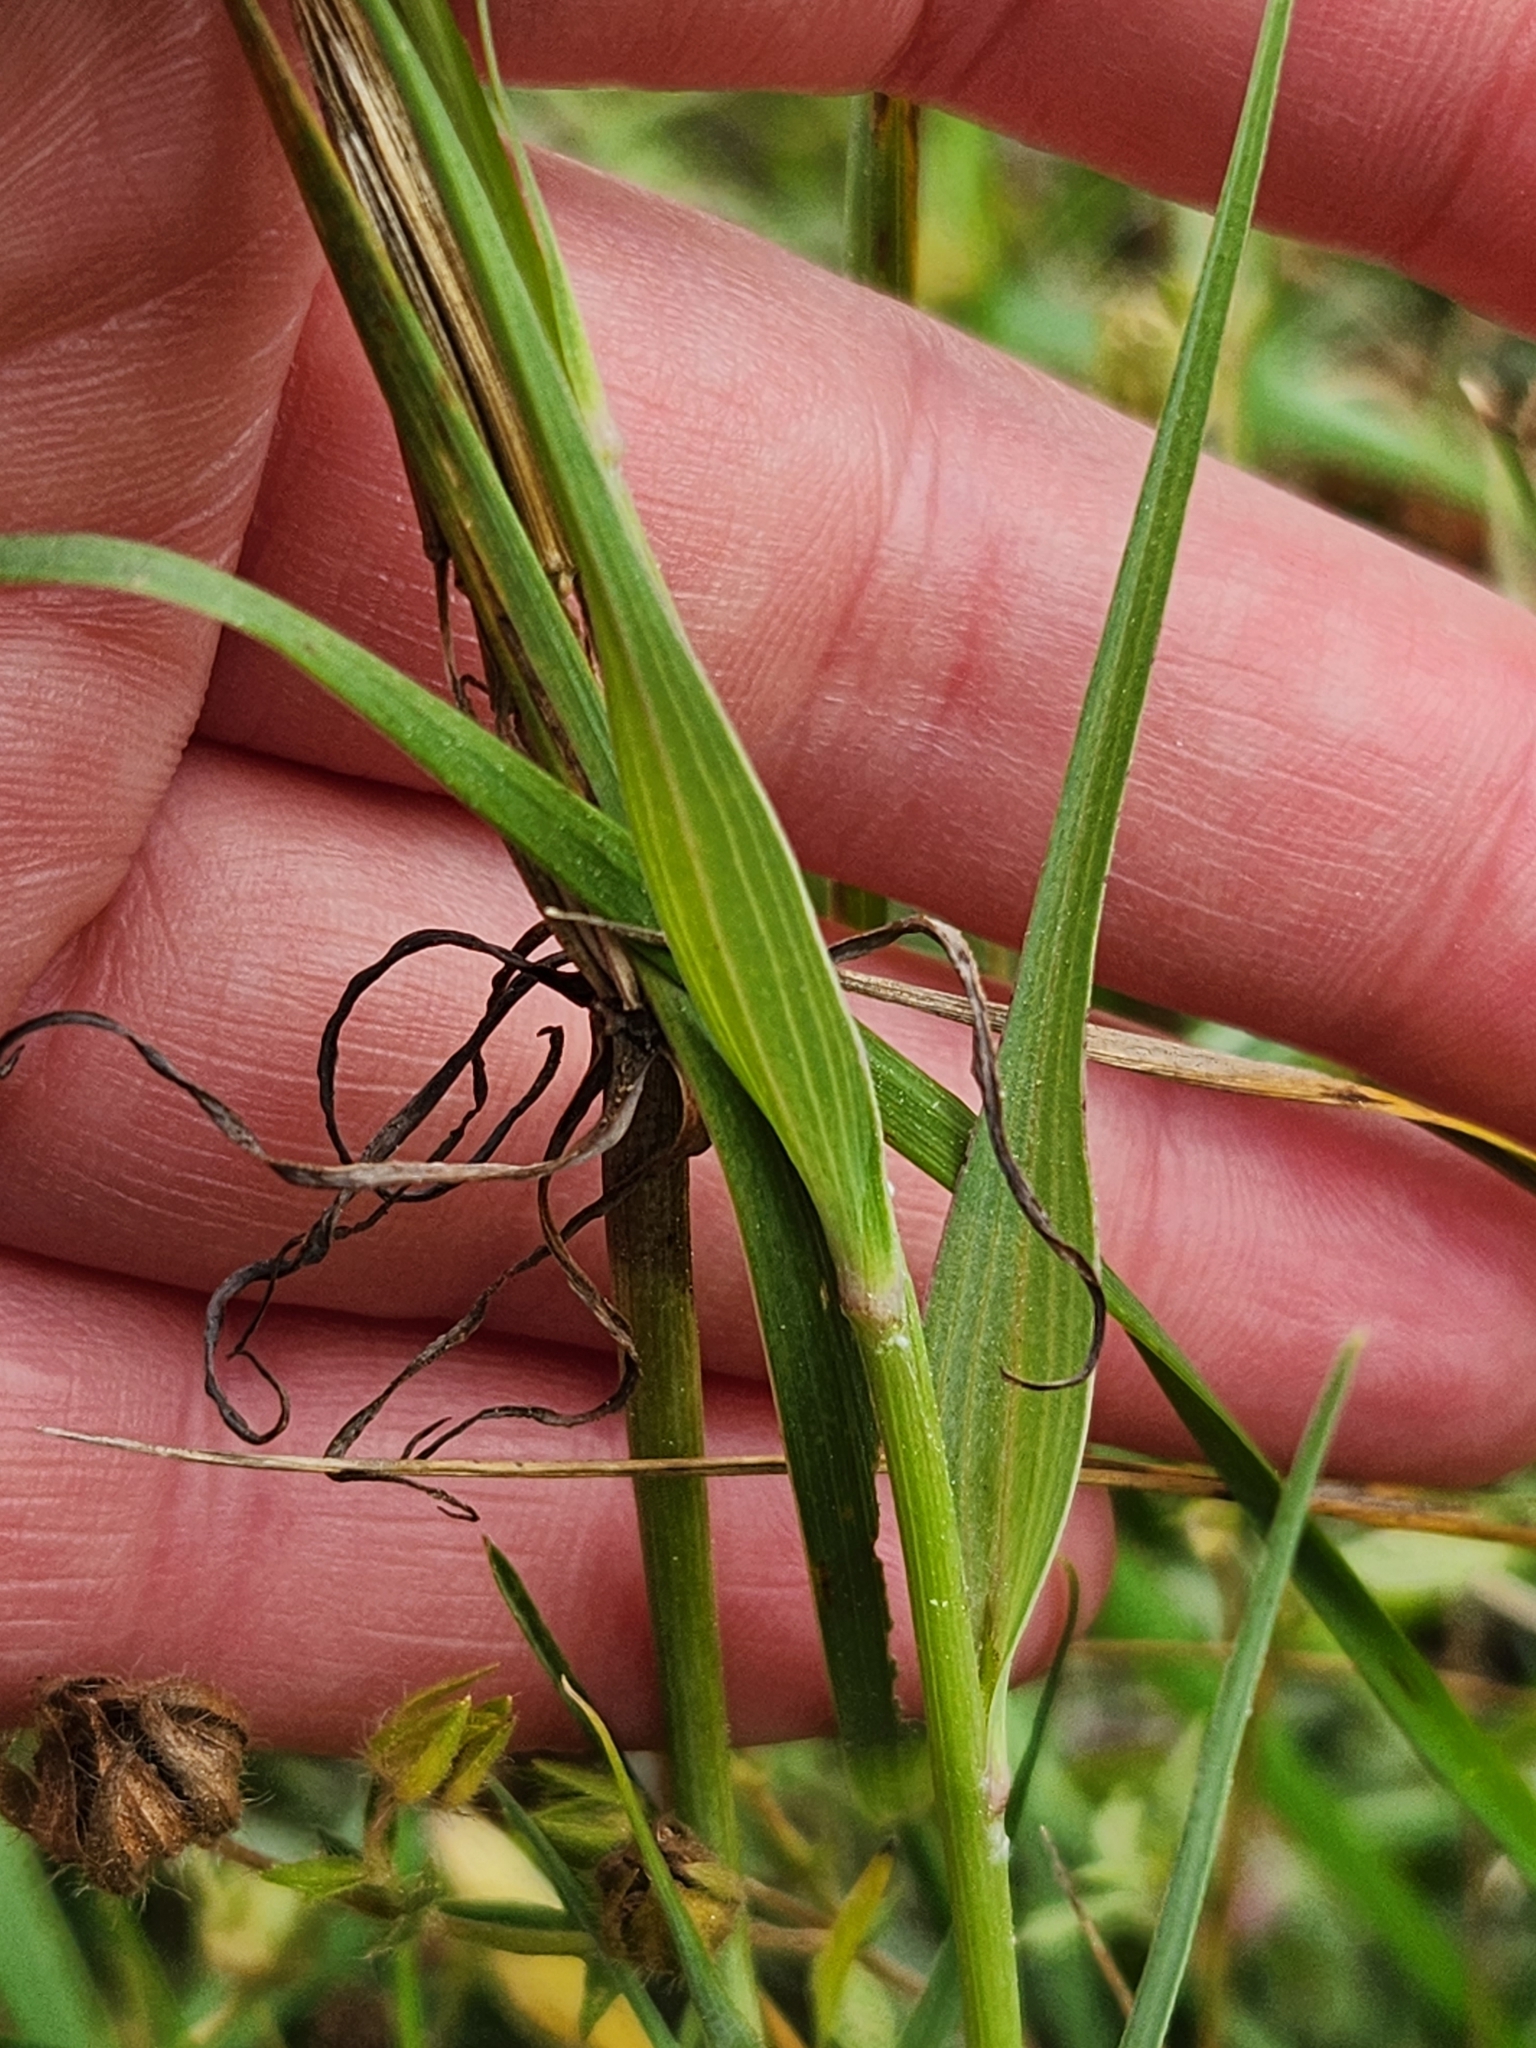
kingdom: Plantae
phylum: Tracheophyta
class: Magnoliopsida
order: Asterales
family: Asteraceae
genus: Tragopogon
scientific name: Tragopogon dubius
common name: Yellow salsify
